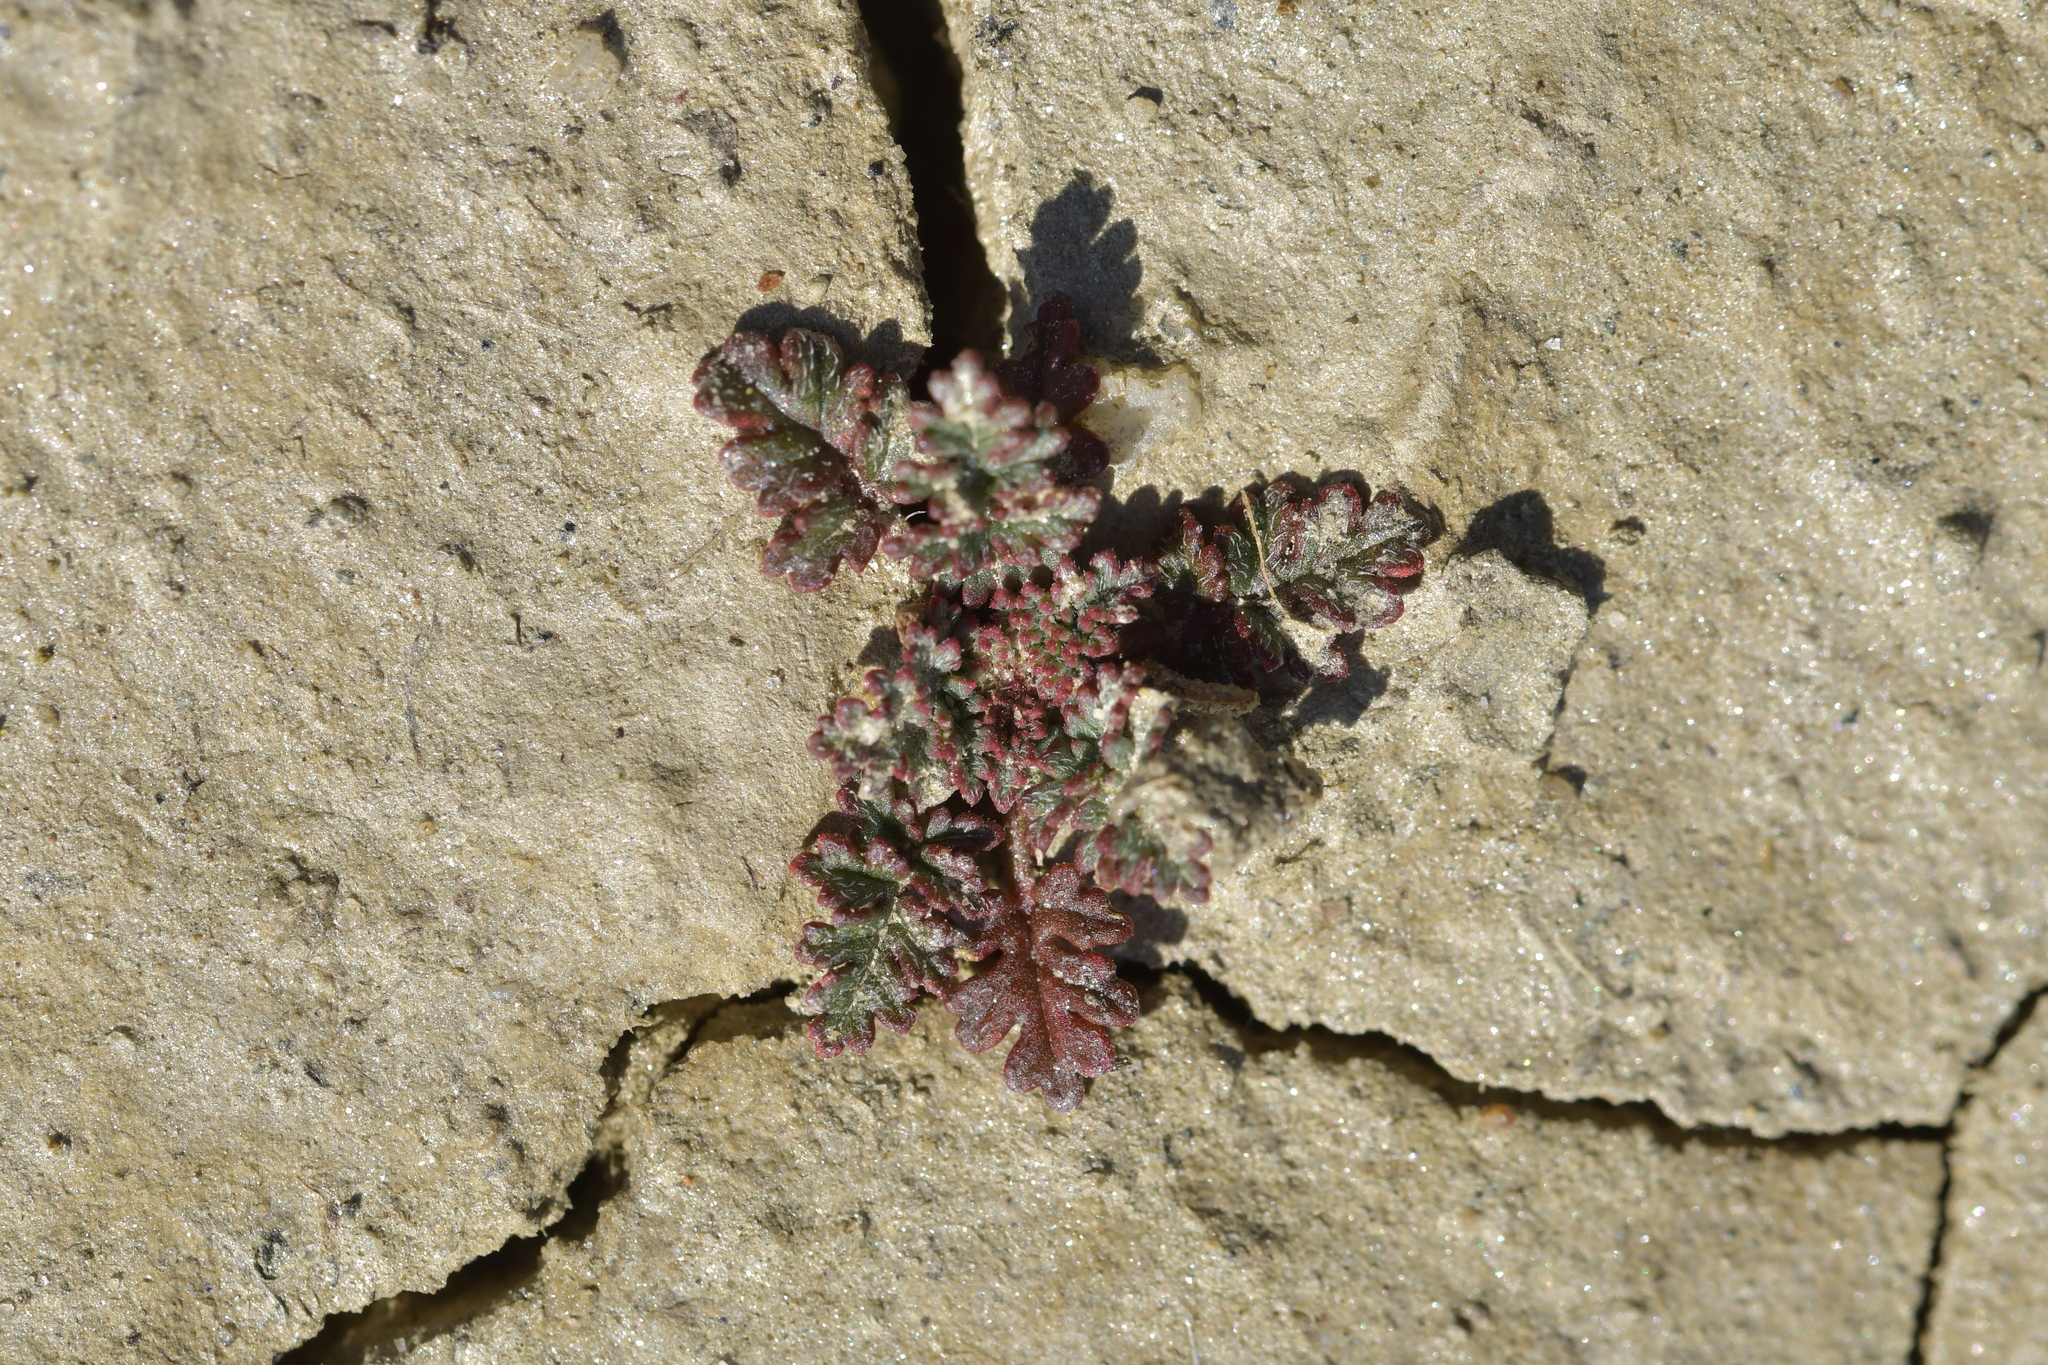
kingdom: Plantae
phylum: Tracheophyta
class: Magnoliopsida
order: Geraniales
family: Geraniaceae
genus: Erodium
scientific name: Erodium cicutarium
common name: Common stork's-bill
